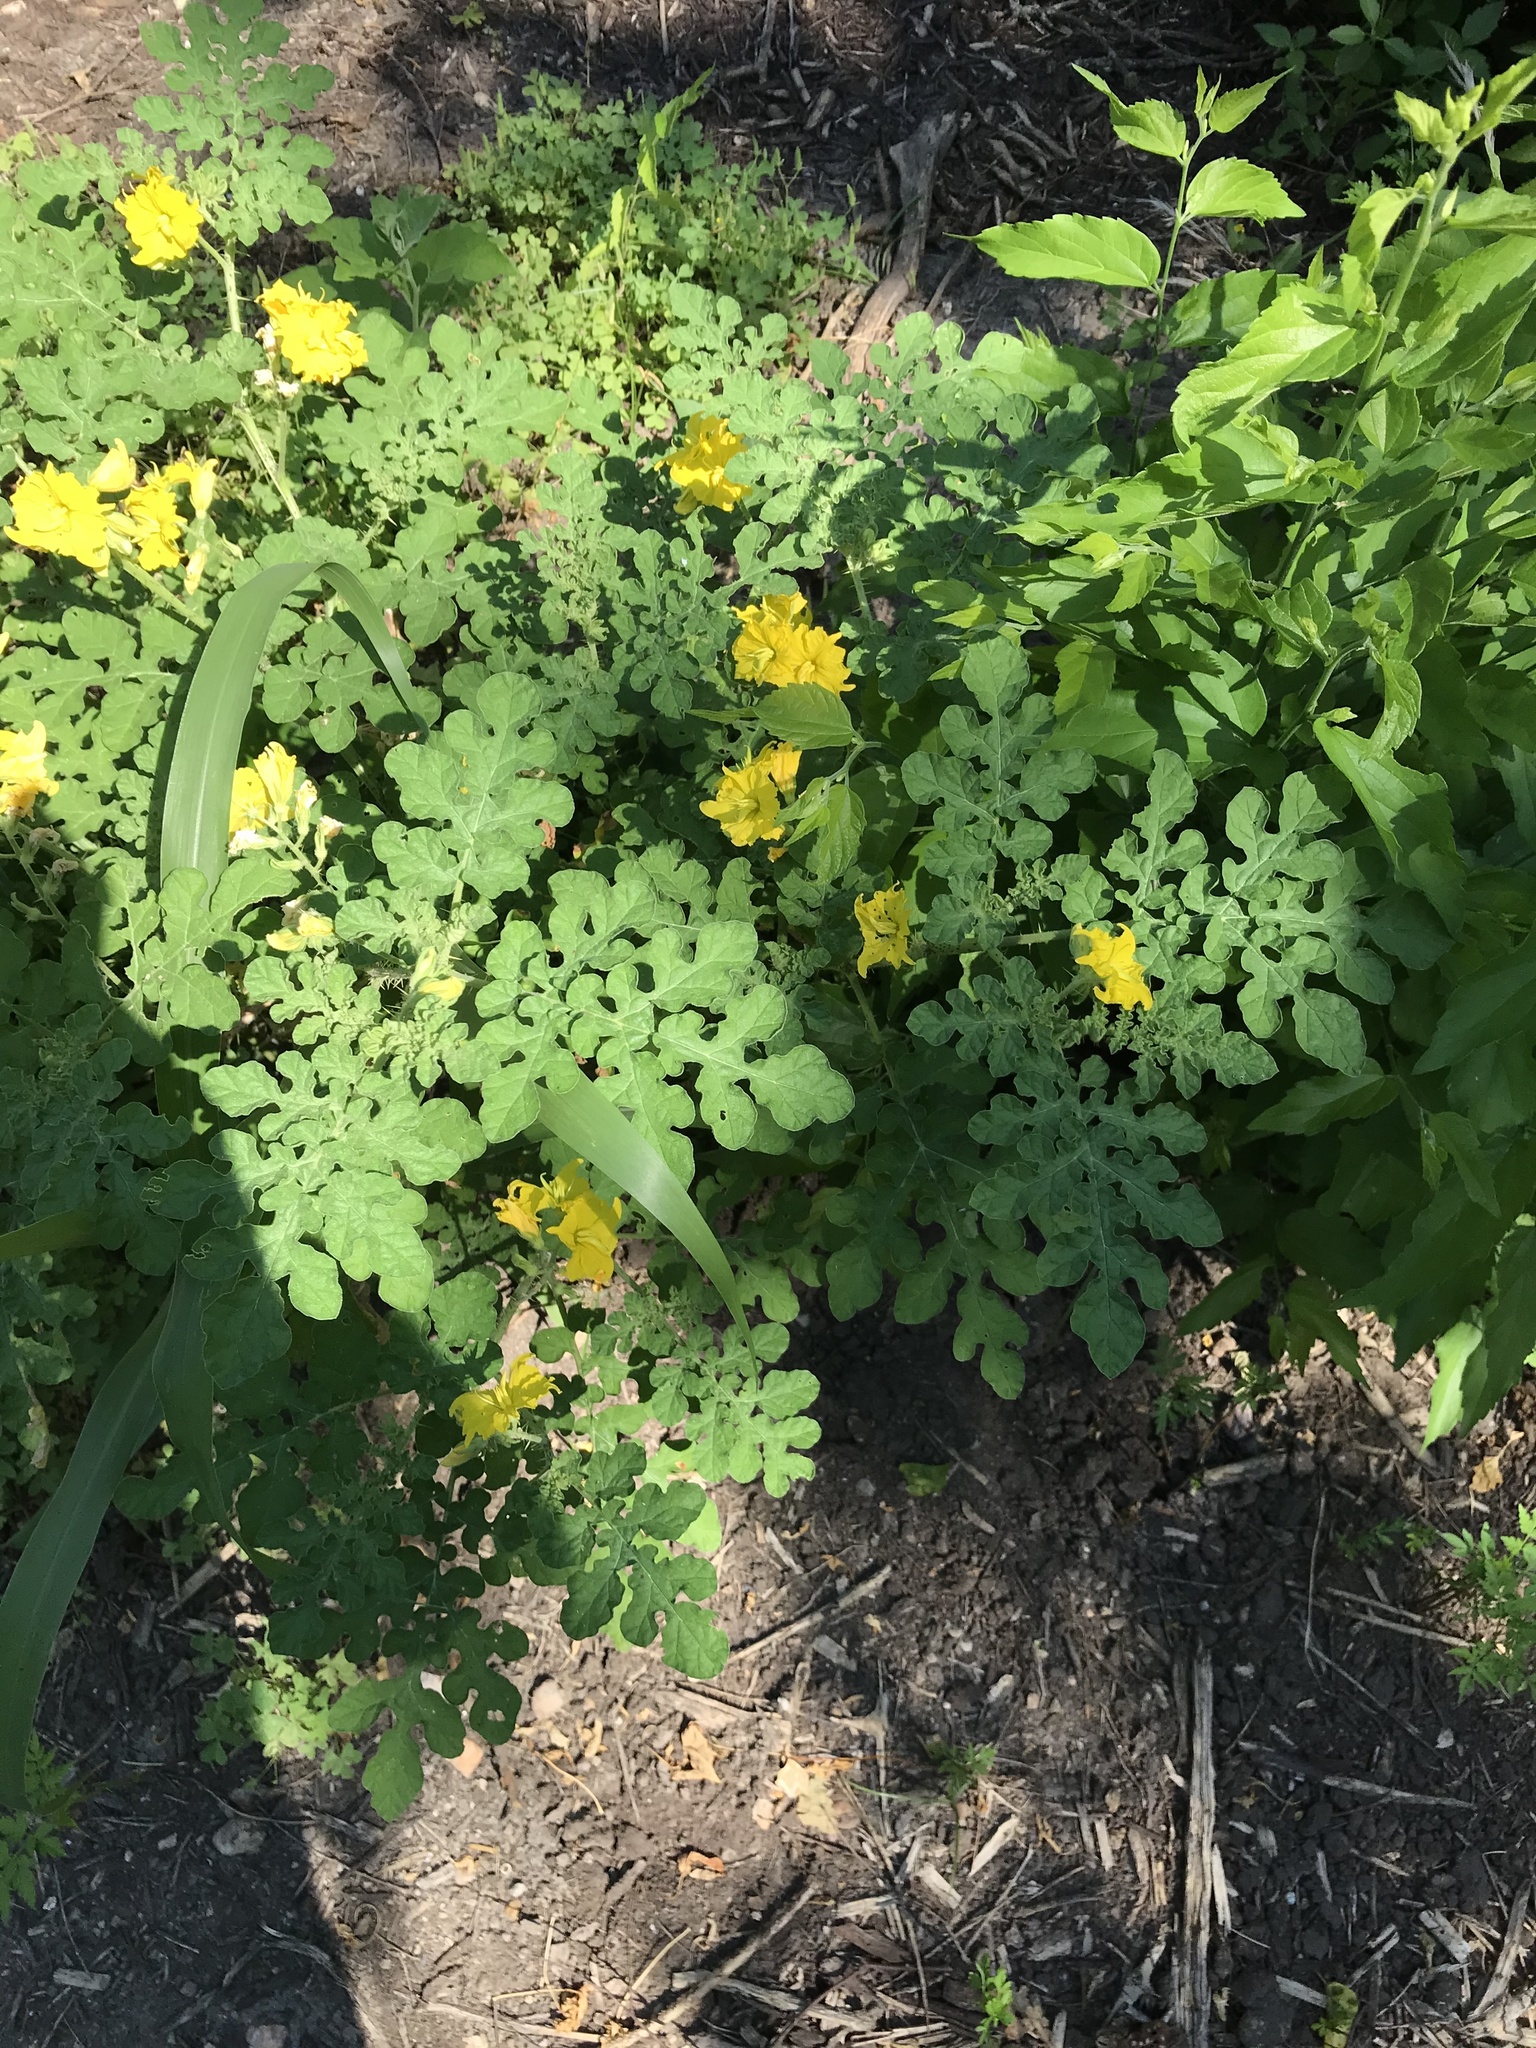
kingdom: Plantae
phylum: Tracheophyta
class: Magnoliopsida
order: Solanales
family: Solanaceae
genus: Solanum
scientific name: Solanum angustifolium
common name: Buffalobur nightshade
